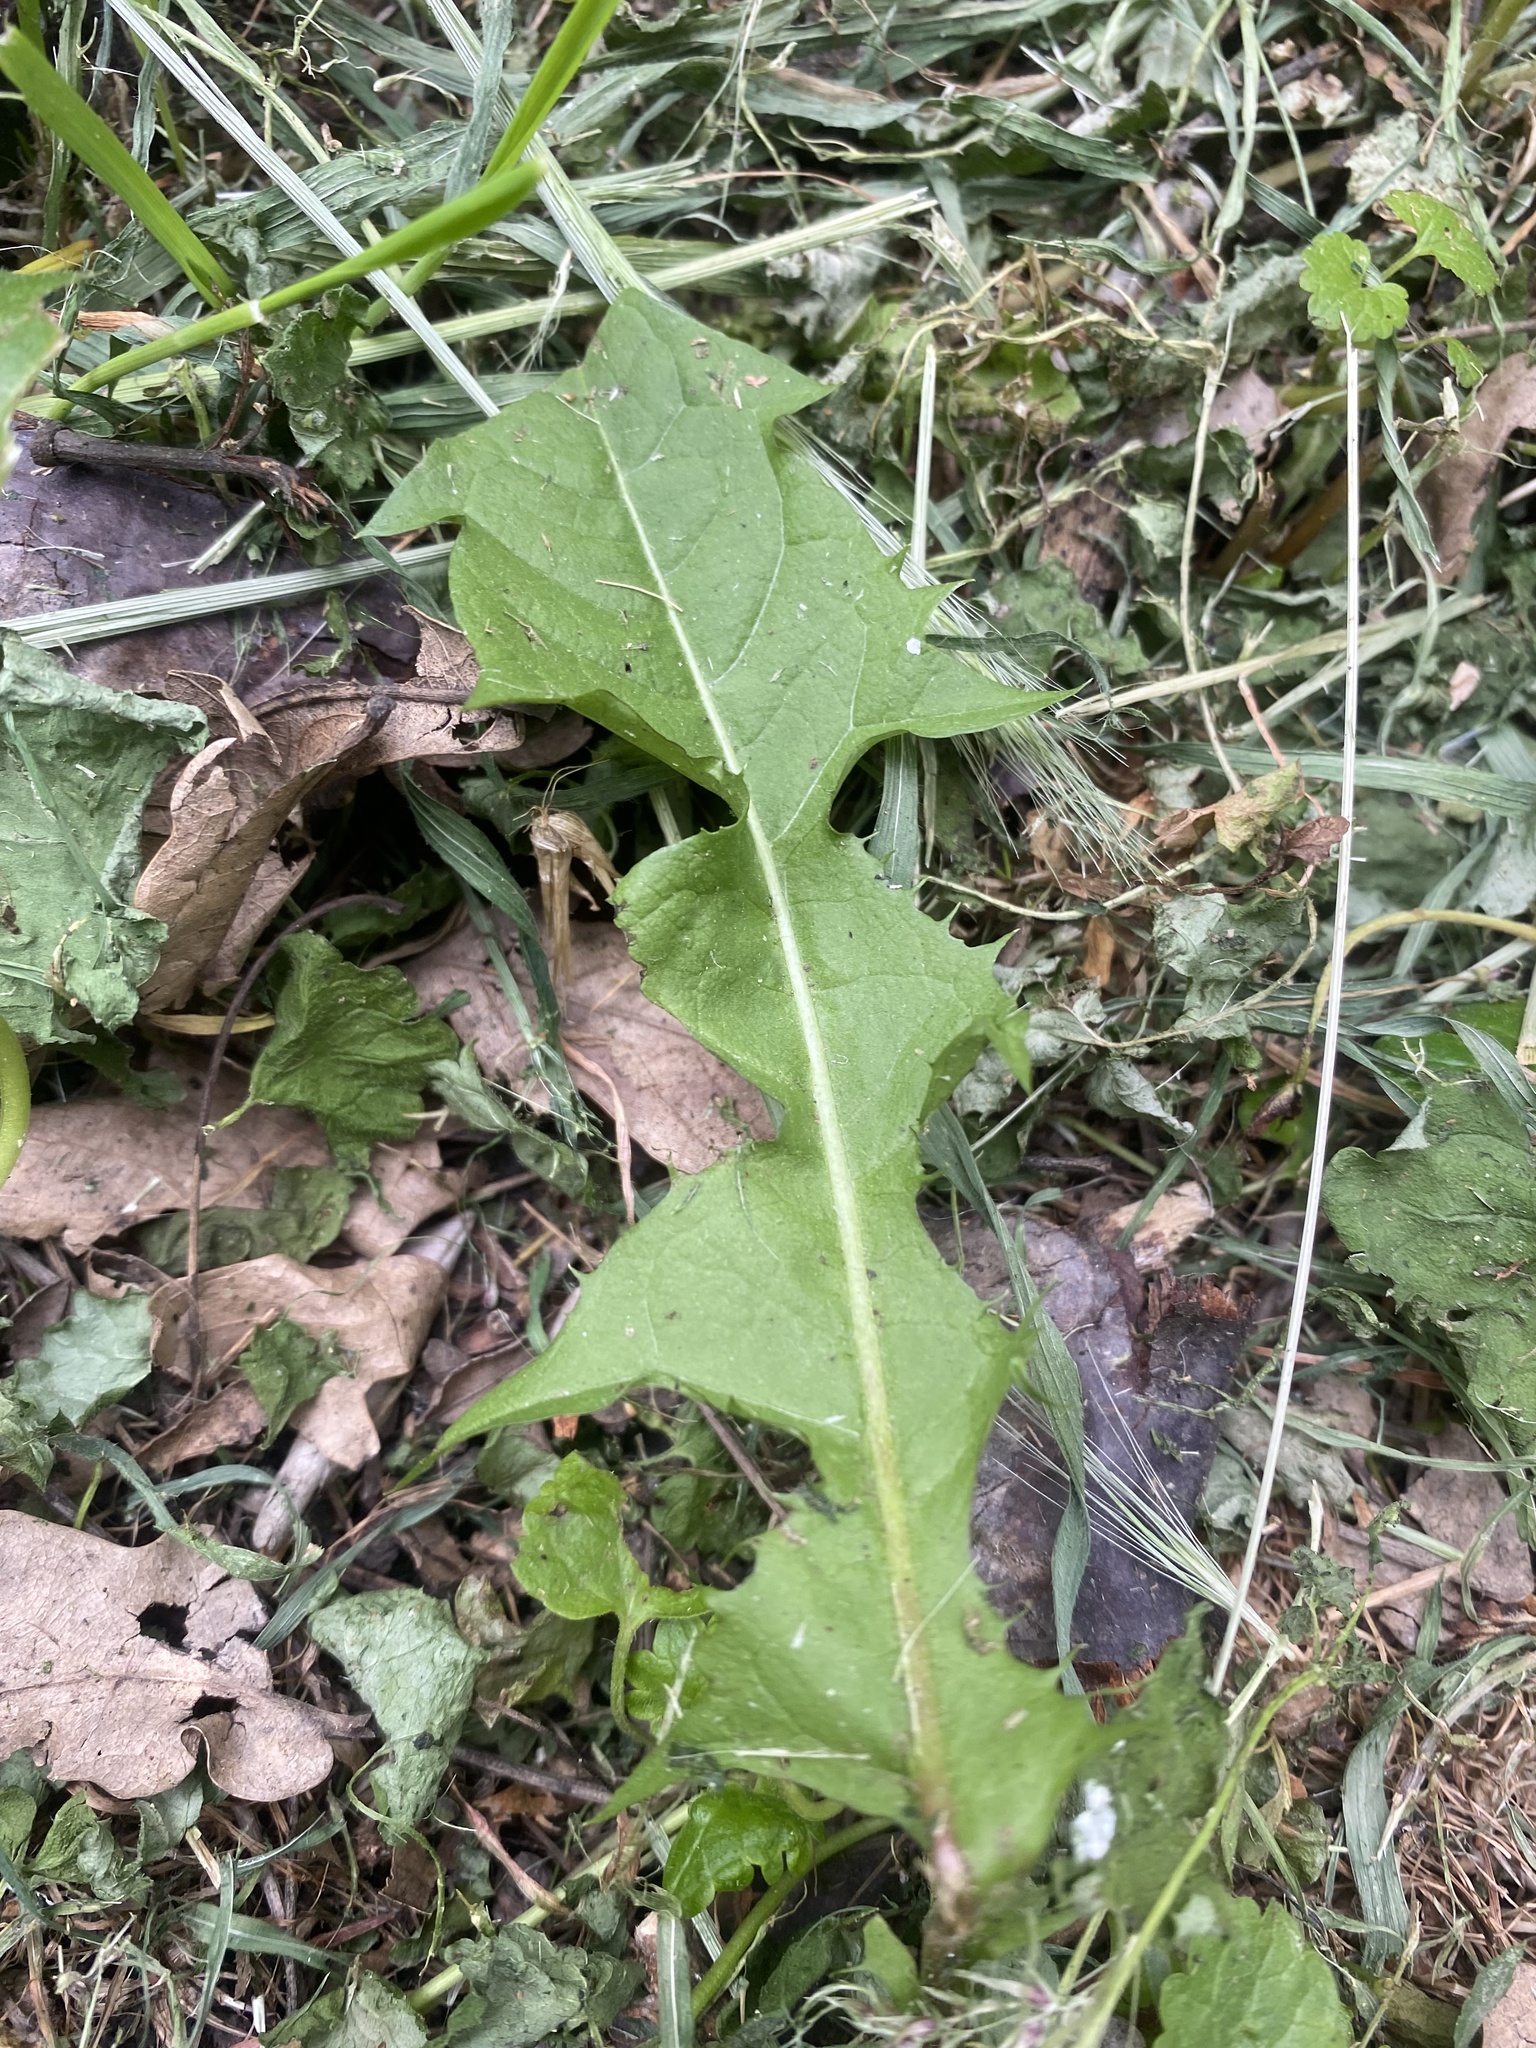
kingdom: Plantae
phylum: Tracheophyta
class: Magnoliopsida
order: Asterales
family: Asteraceae
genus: Taraxacum
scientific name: Taraxacum officinale
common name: Common dandelion
